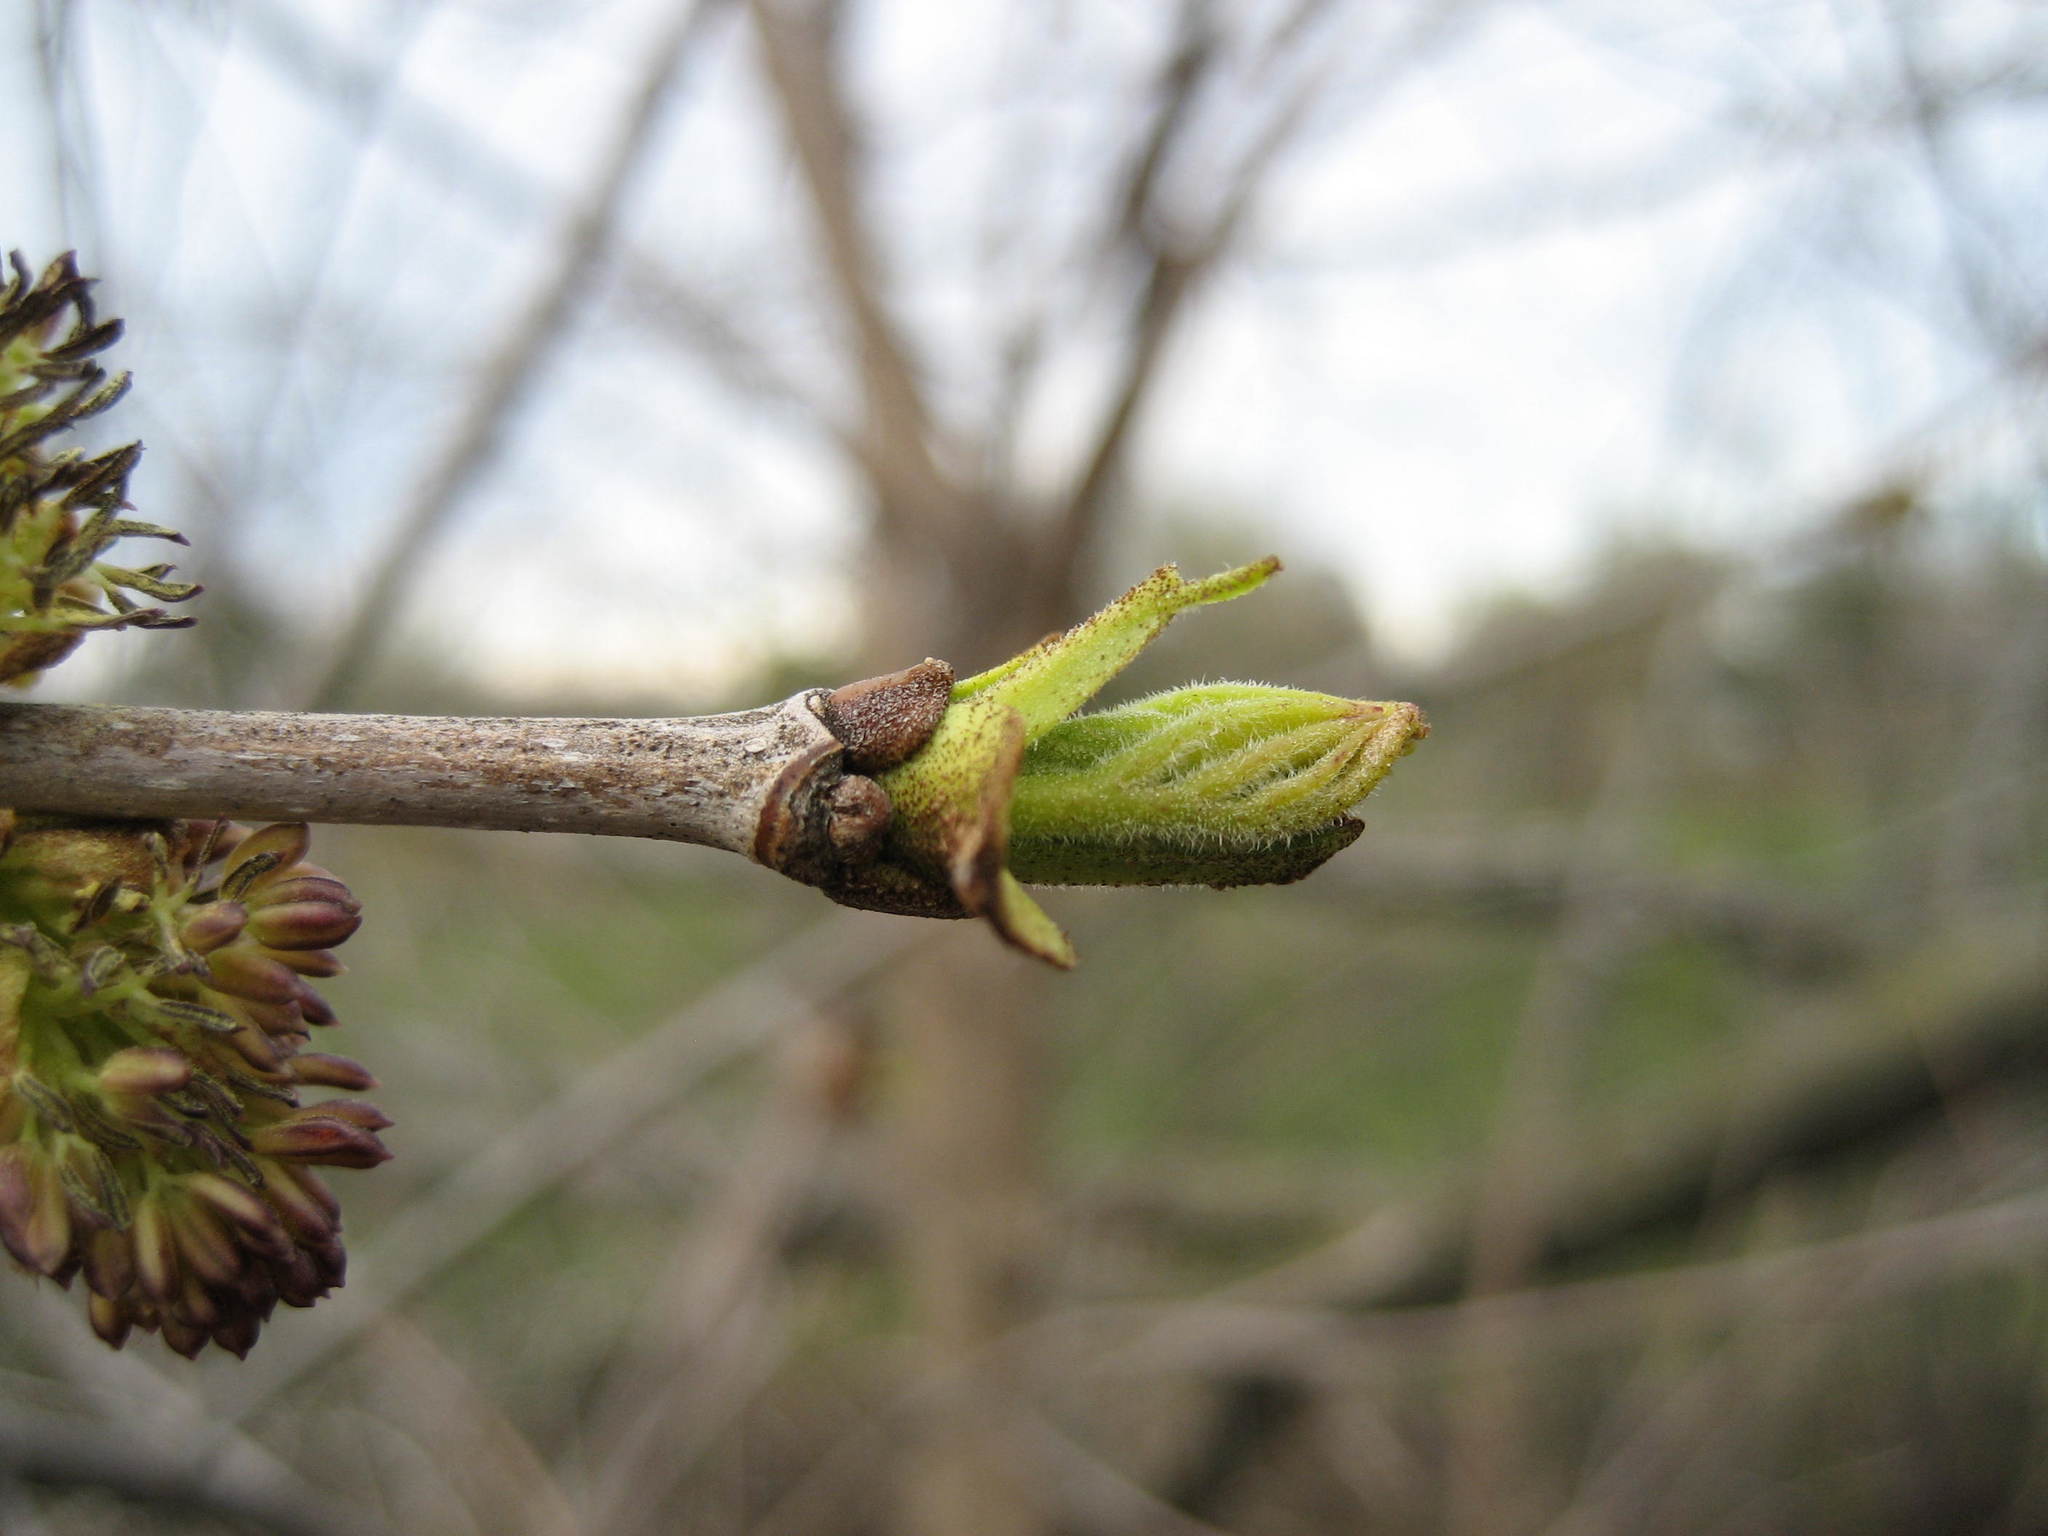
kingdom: Plantae
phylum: Tracheophyta
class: Magnoliopsida
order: Lamiales
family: Oleaceae
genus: Fraxinus
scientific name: Fraxinus pennsylvanica
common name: Green ash
